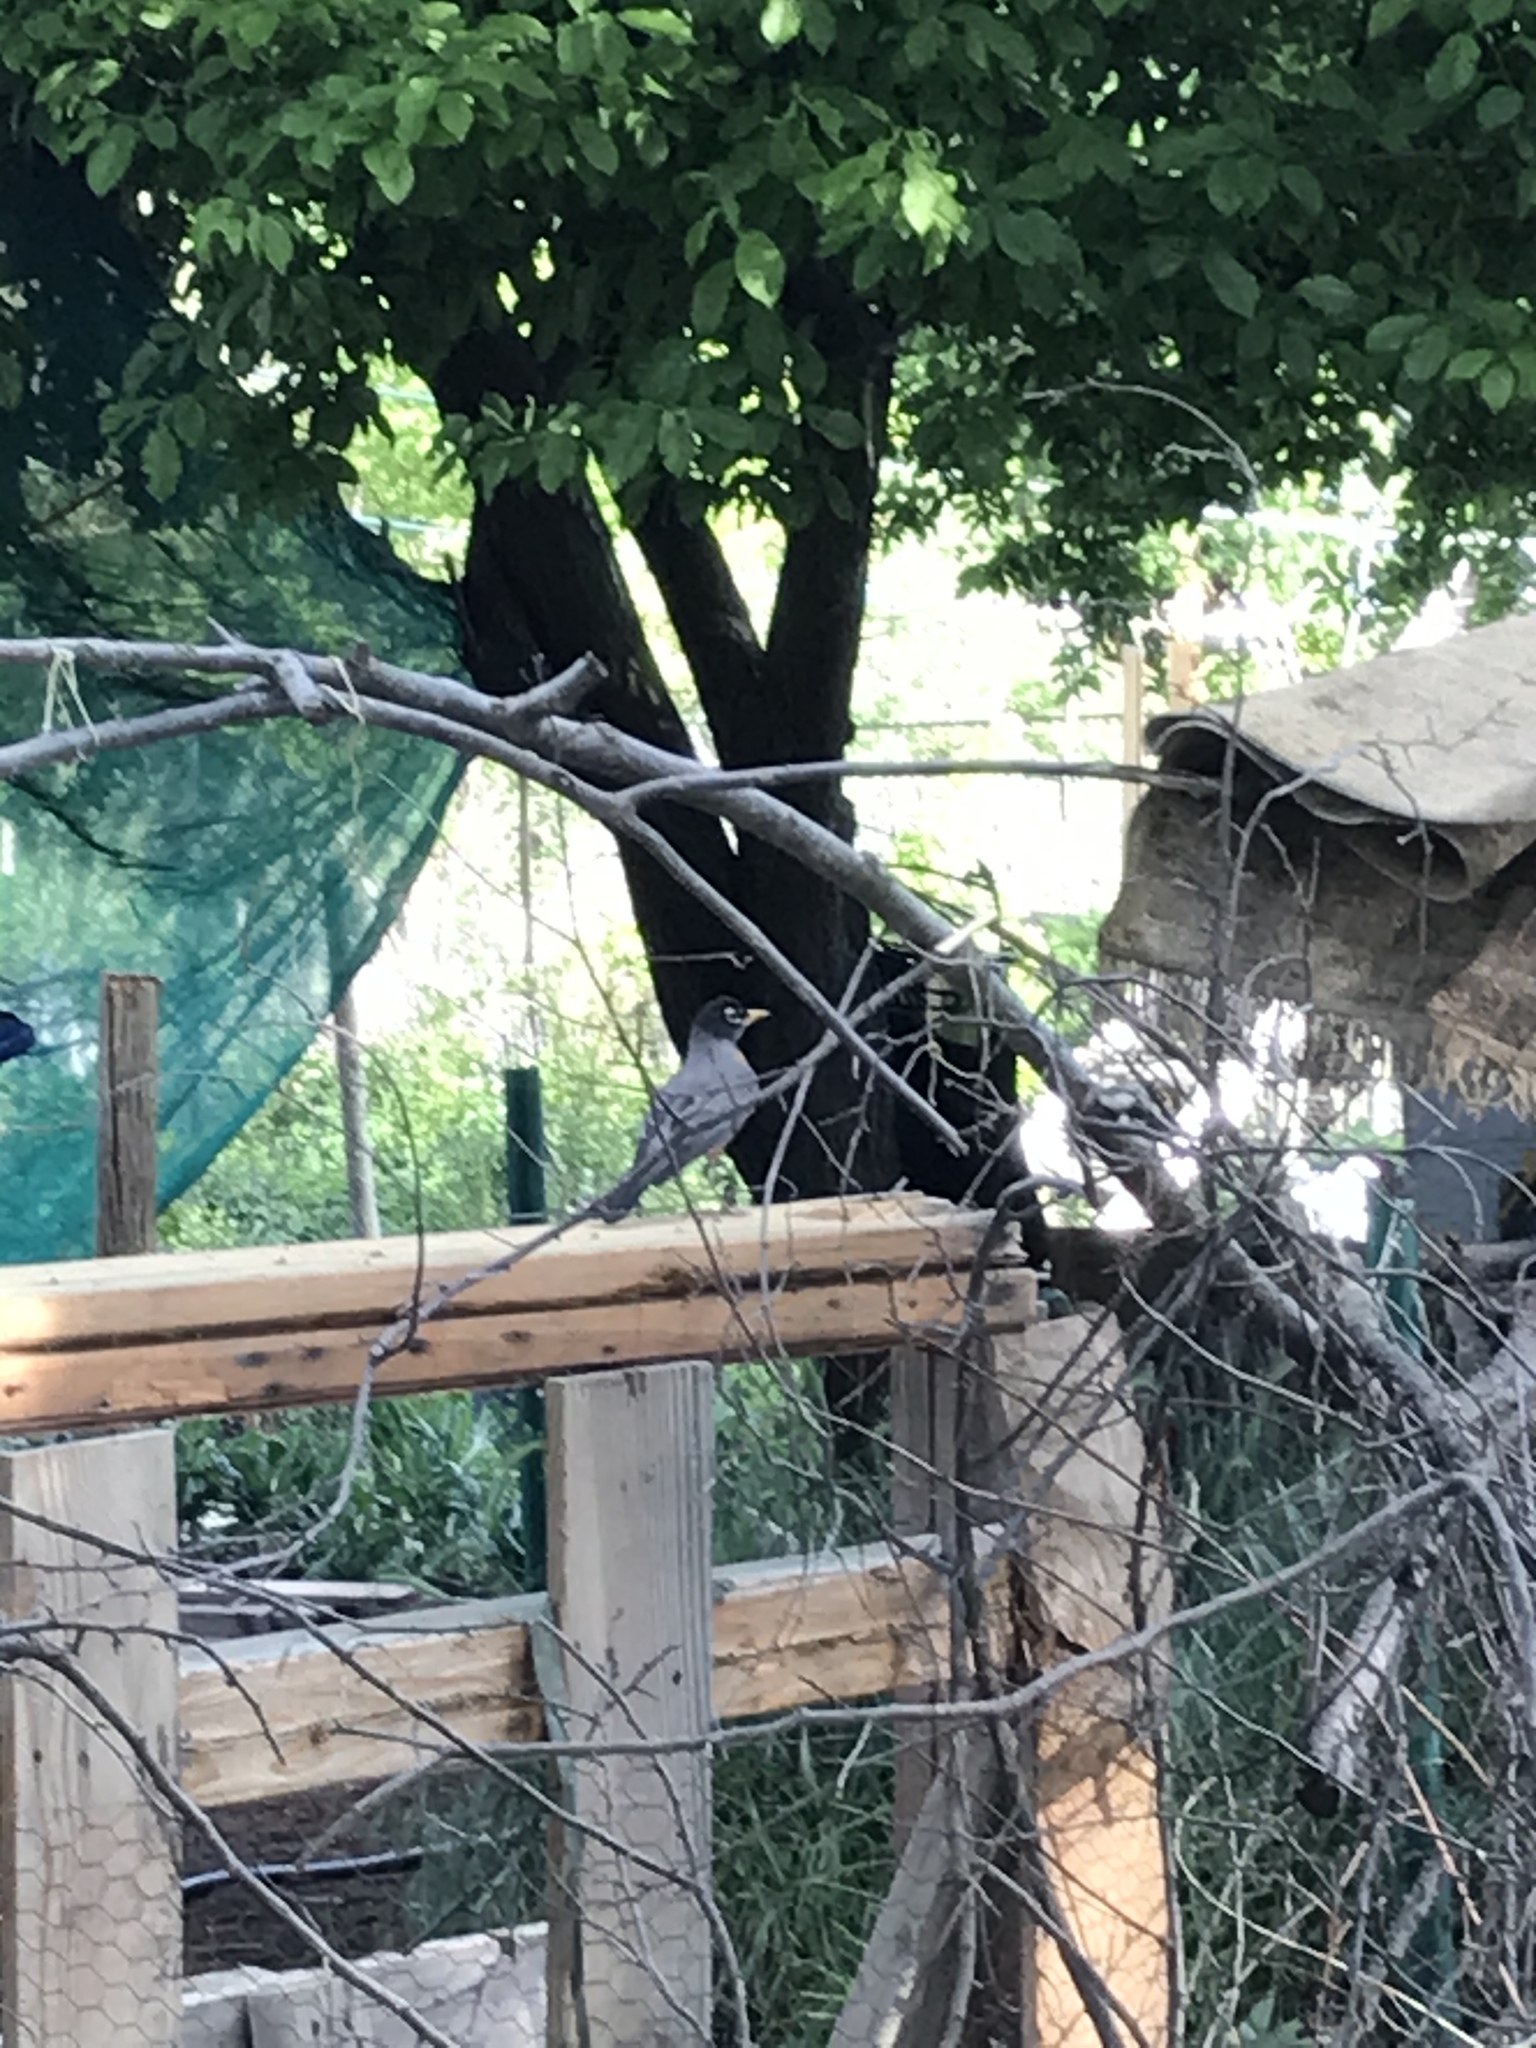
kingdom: Animalia
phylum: Chordata
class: Aves
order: Passeriformes
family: Turdidae
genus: Turdus
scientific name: Turdus migratorius
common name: American robin
